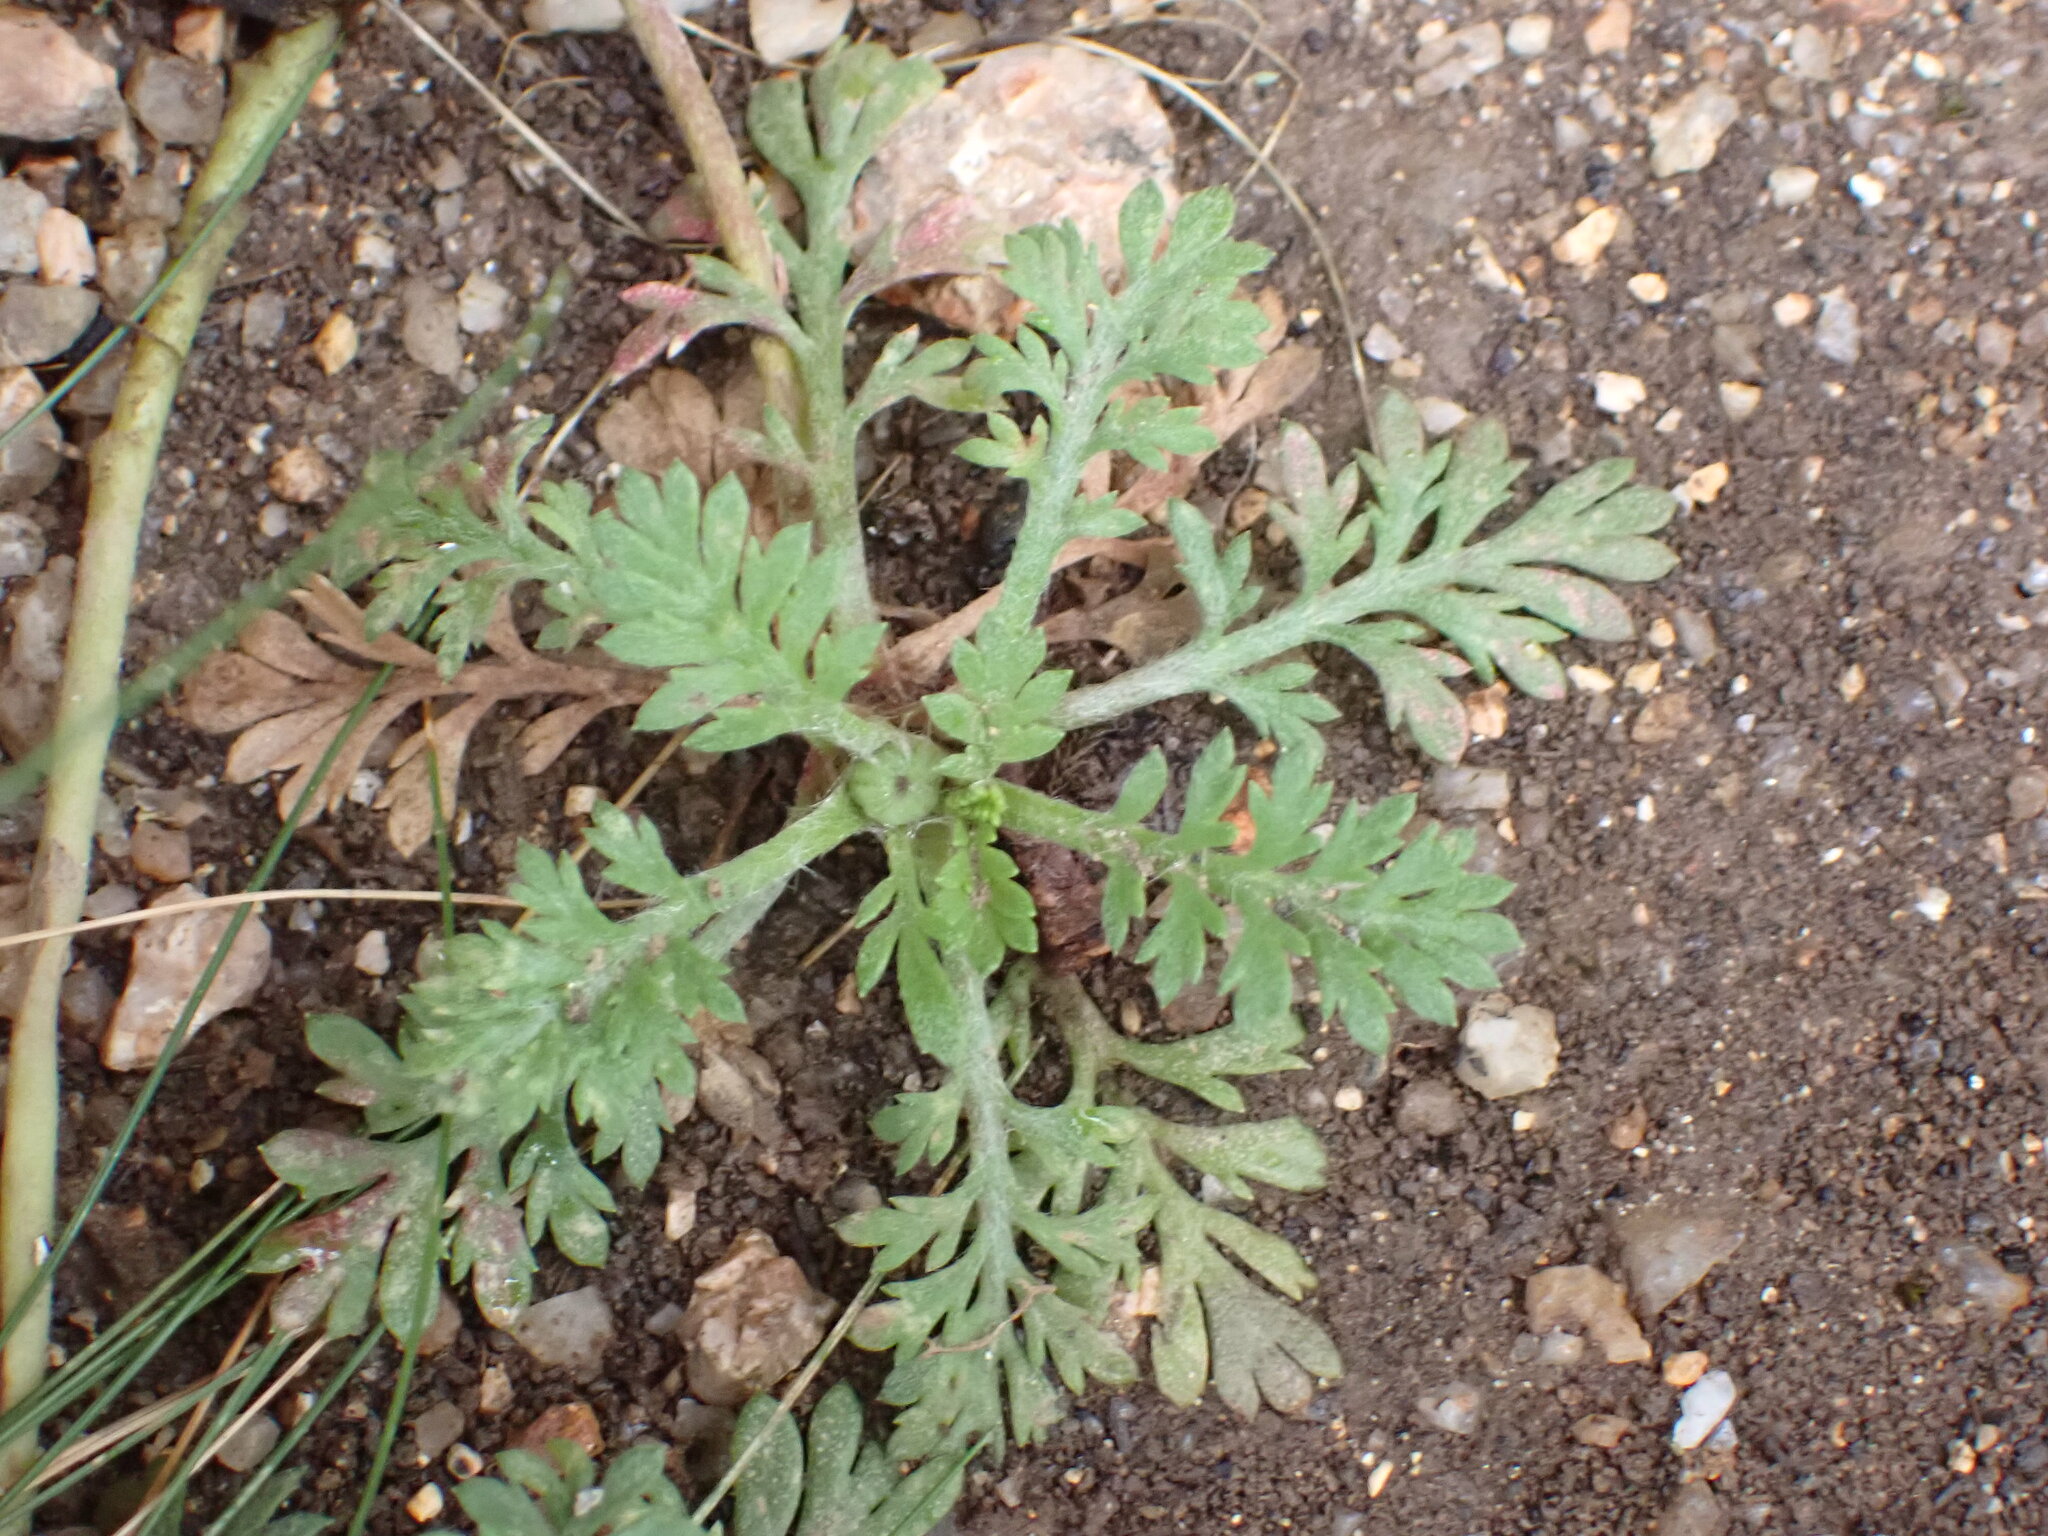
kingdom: Plantae
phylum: Tracheophyta
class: Magnoliopsida
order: Asterales
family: Asteraceae
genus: Leptinella
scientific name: Leptinella filicula
